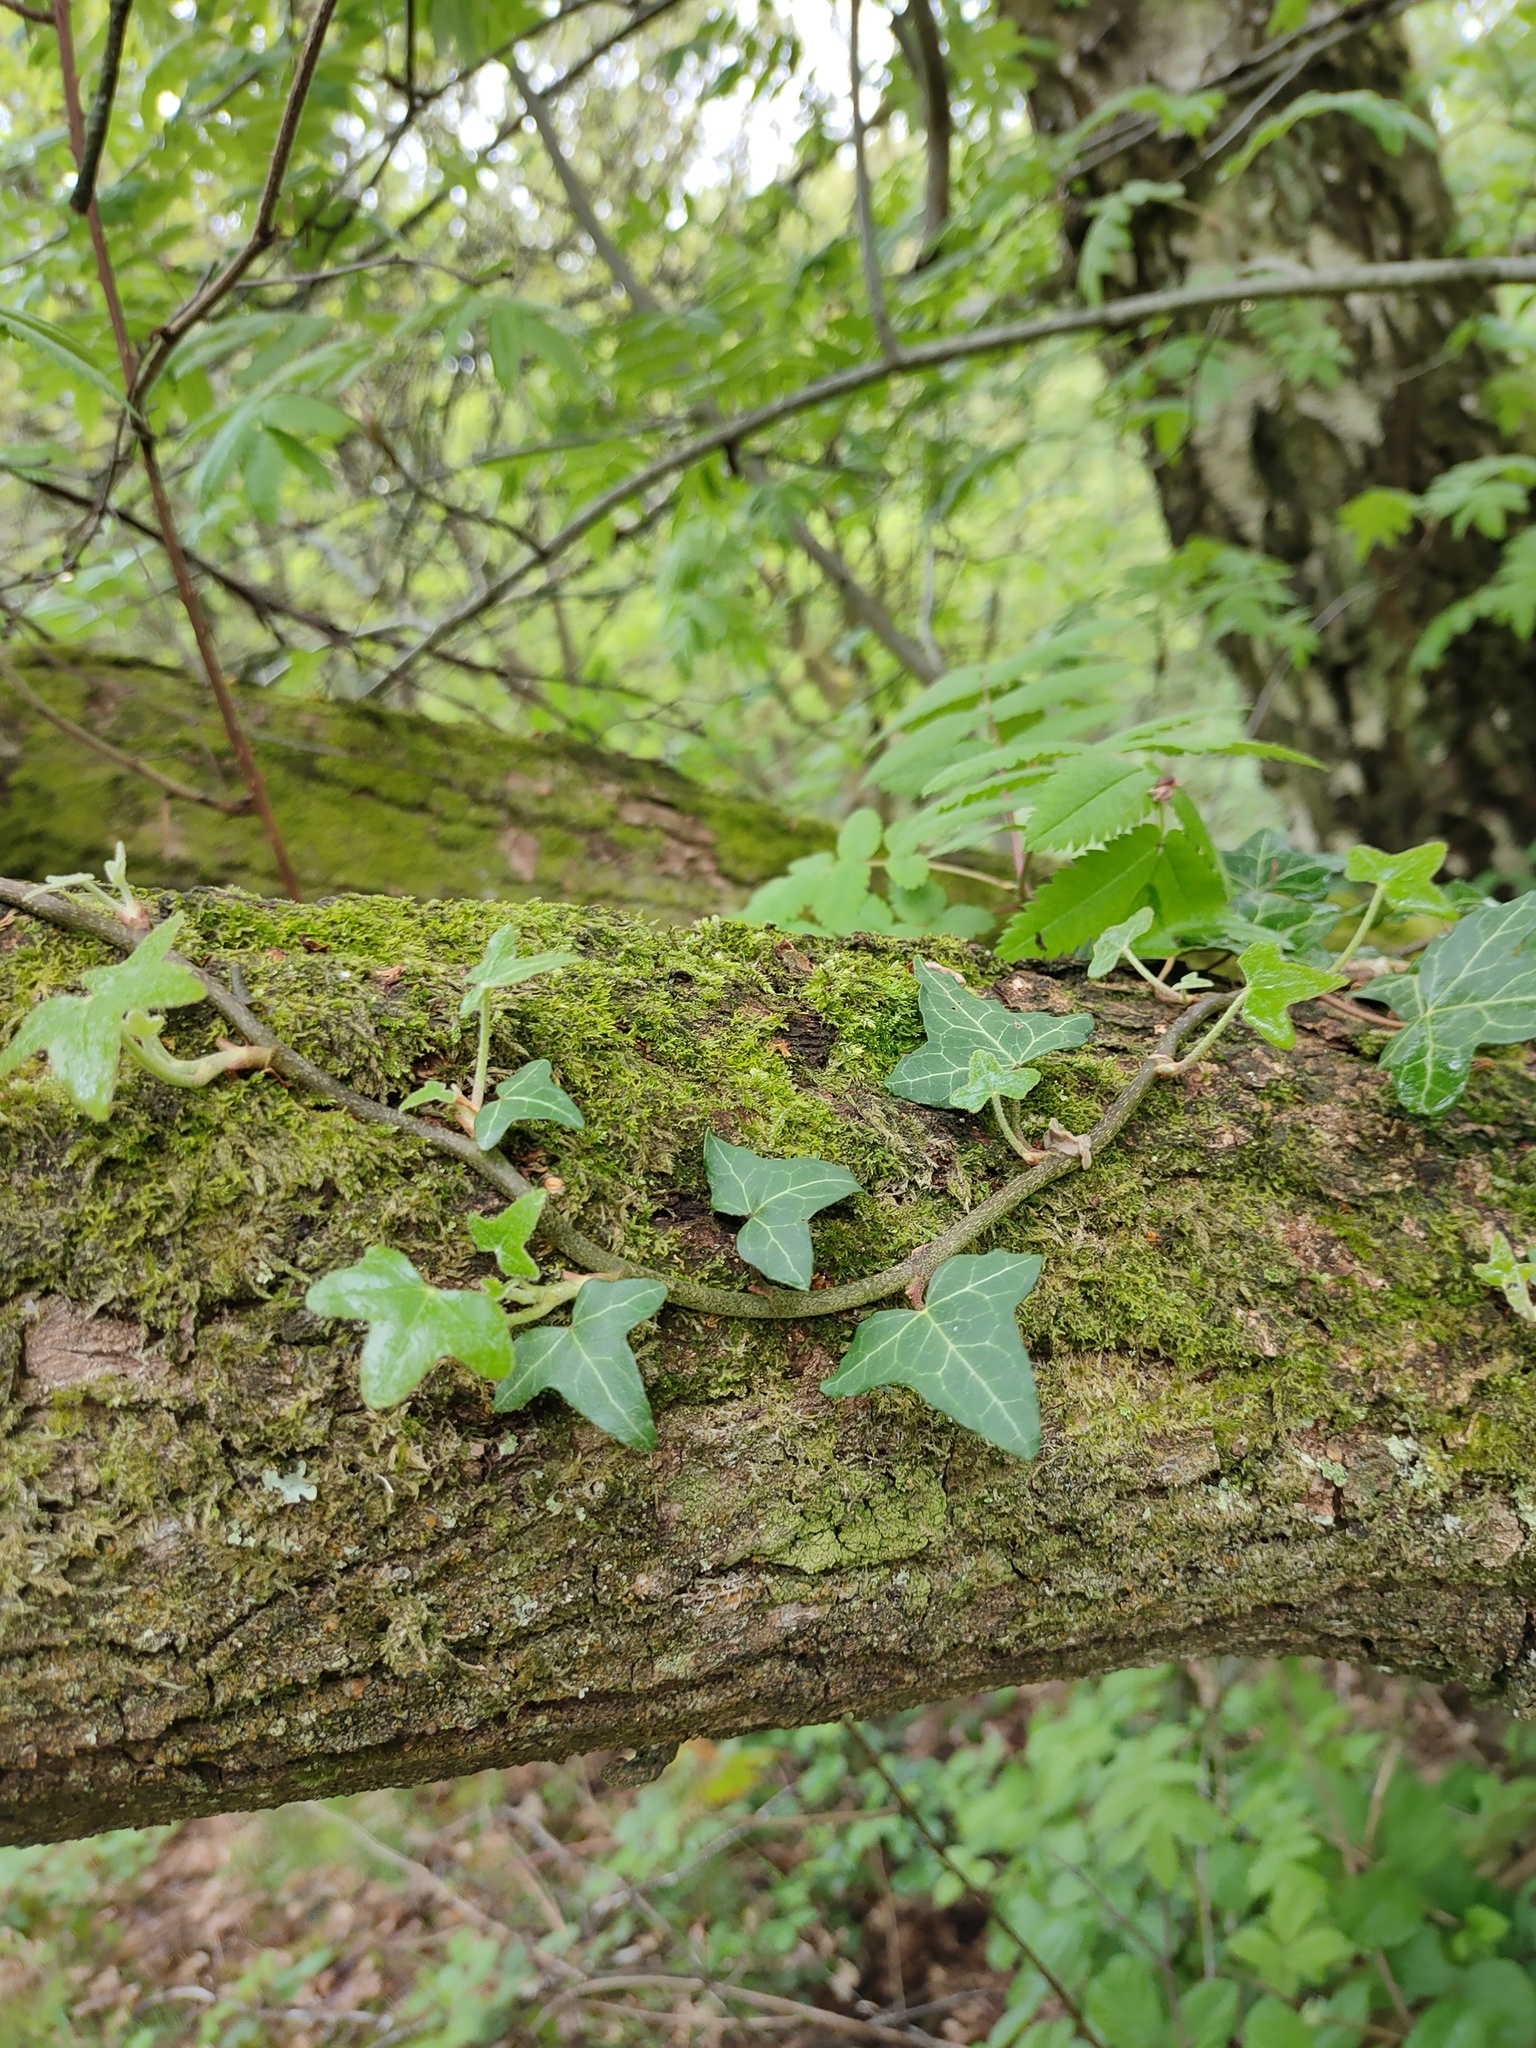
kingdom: Plantae
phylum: Tracheophyta
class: Magnoliopsida
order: Apiales
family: Araliaceae
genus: Hedera
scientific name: Hedera helix
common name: Ivy
